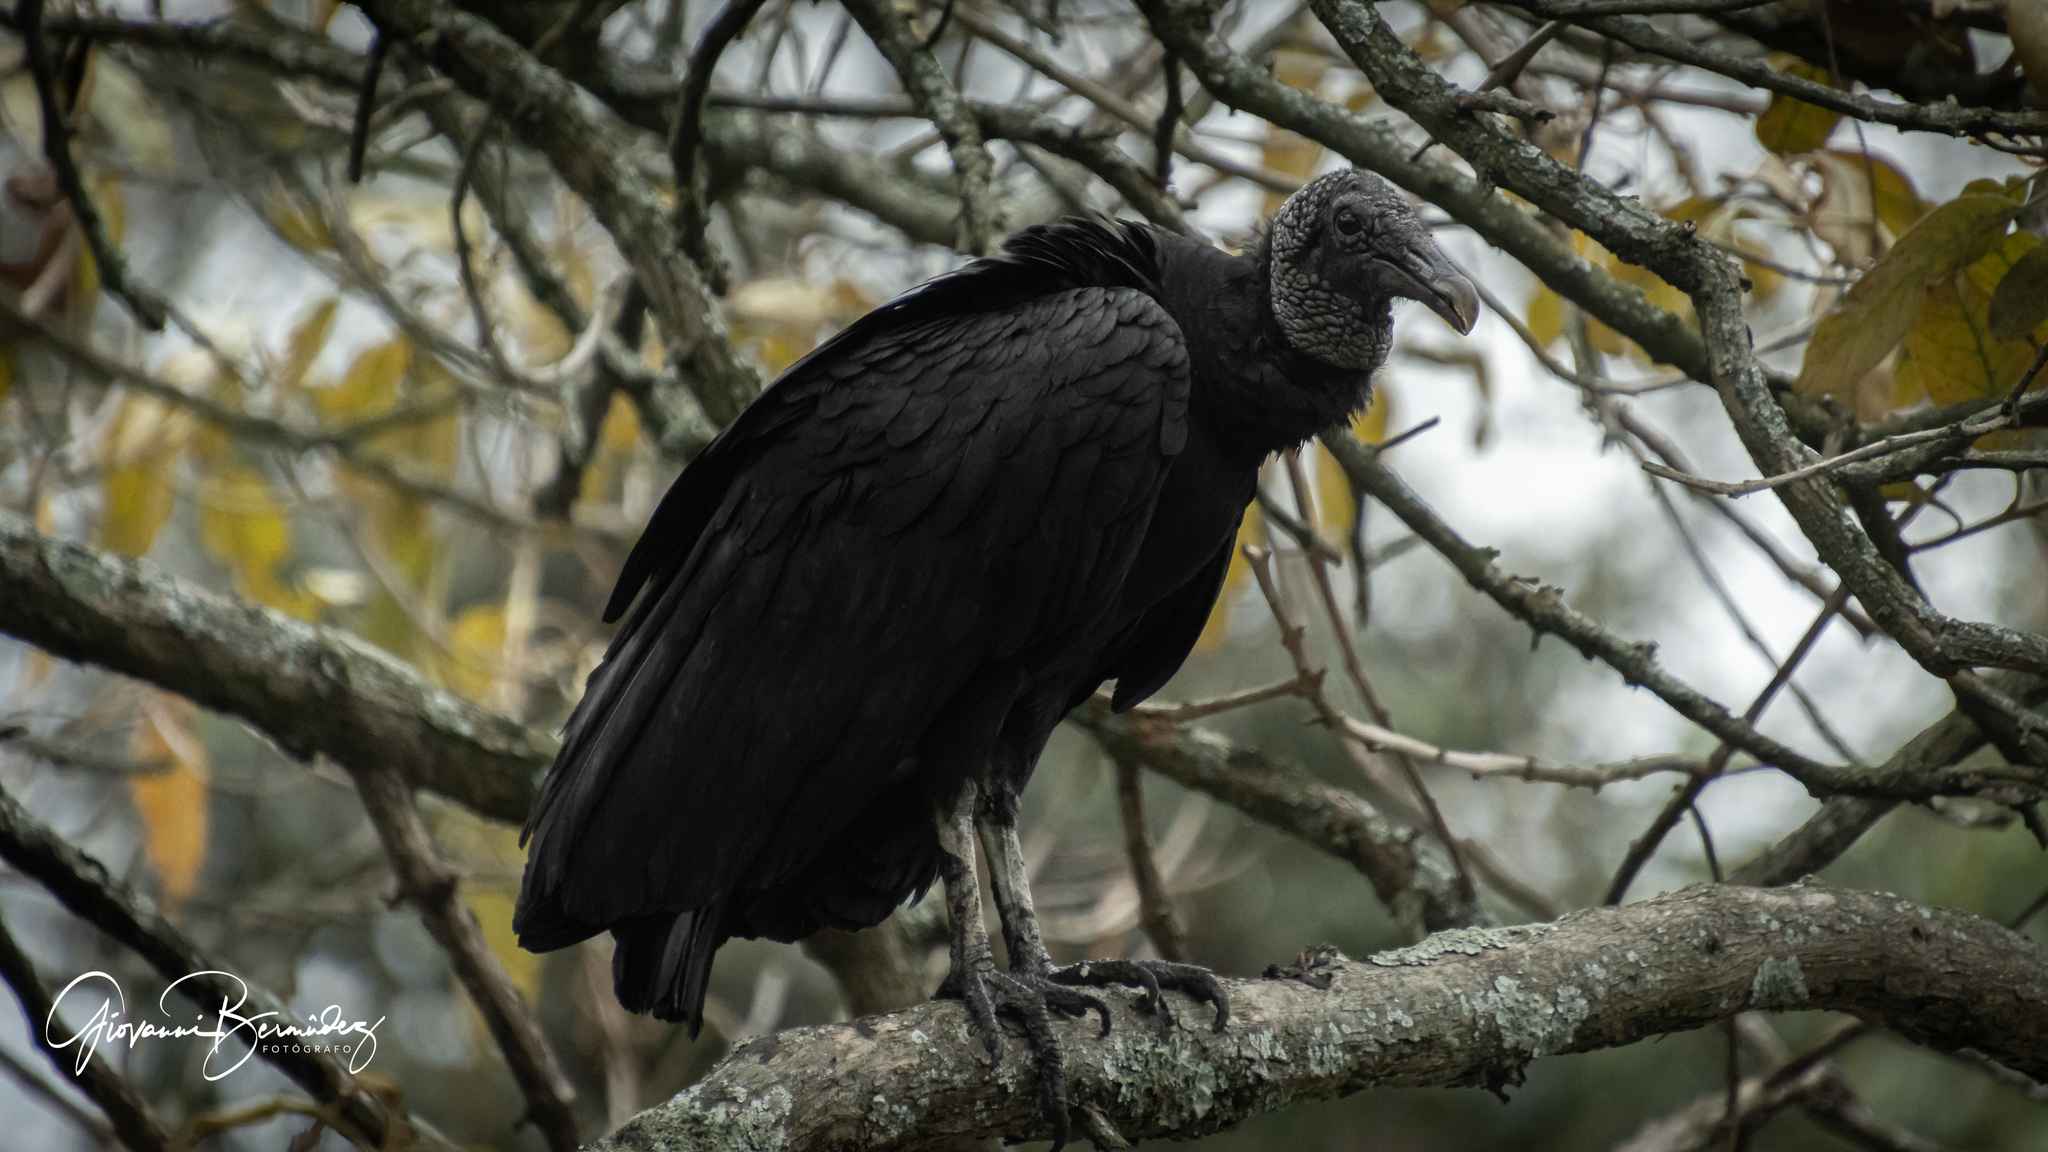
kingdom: Animalia
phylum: Chordata
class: Aves
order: Accipitriformes
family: Cathartidae
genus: Coragyps
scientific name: Coragyps atratus
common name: Black vulture
